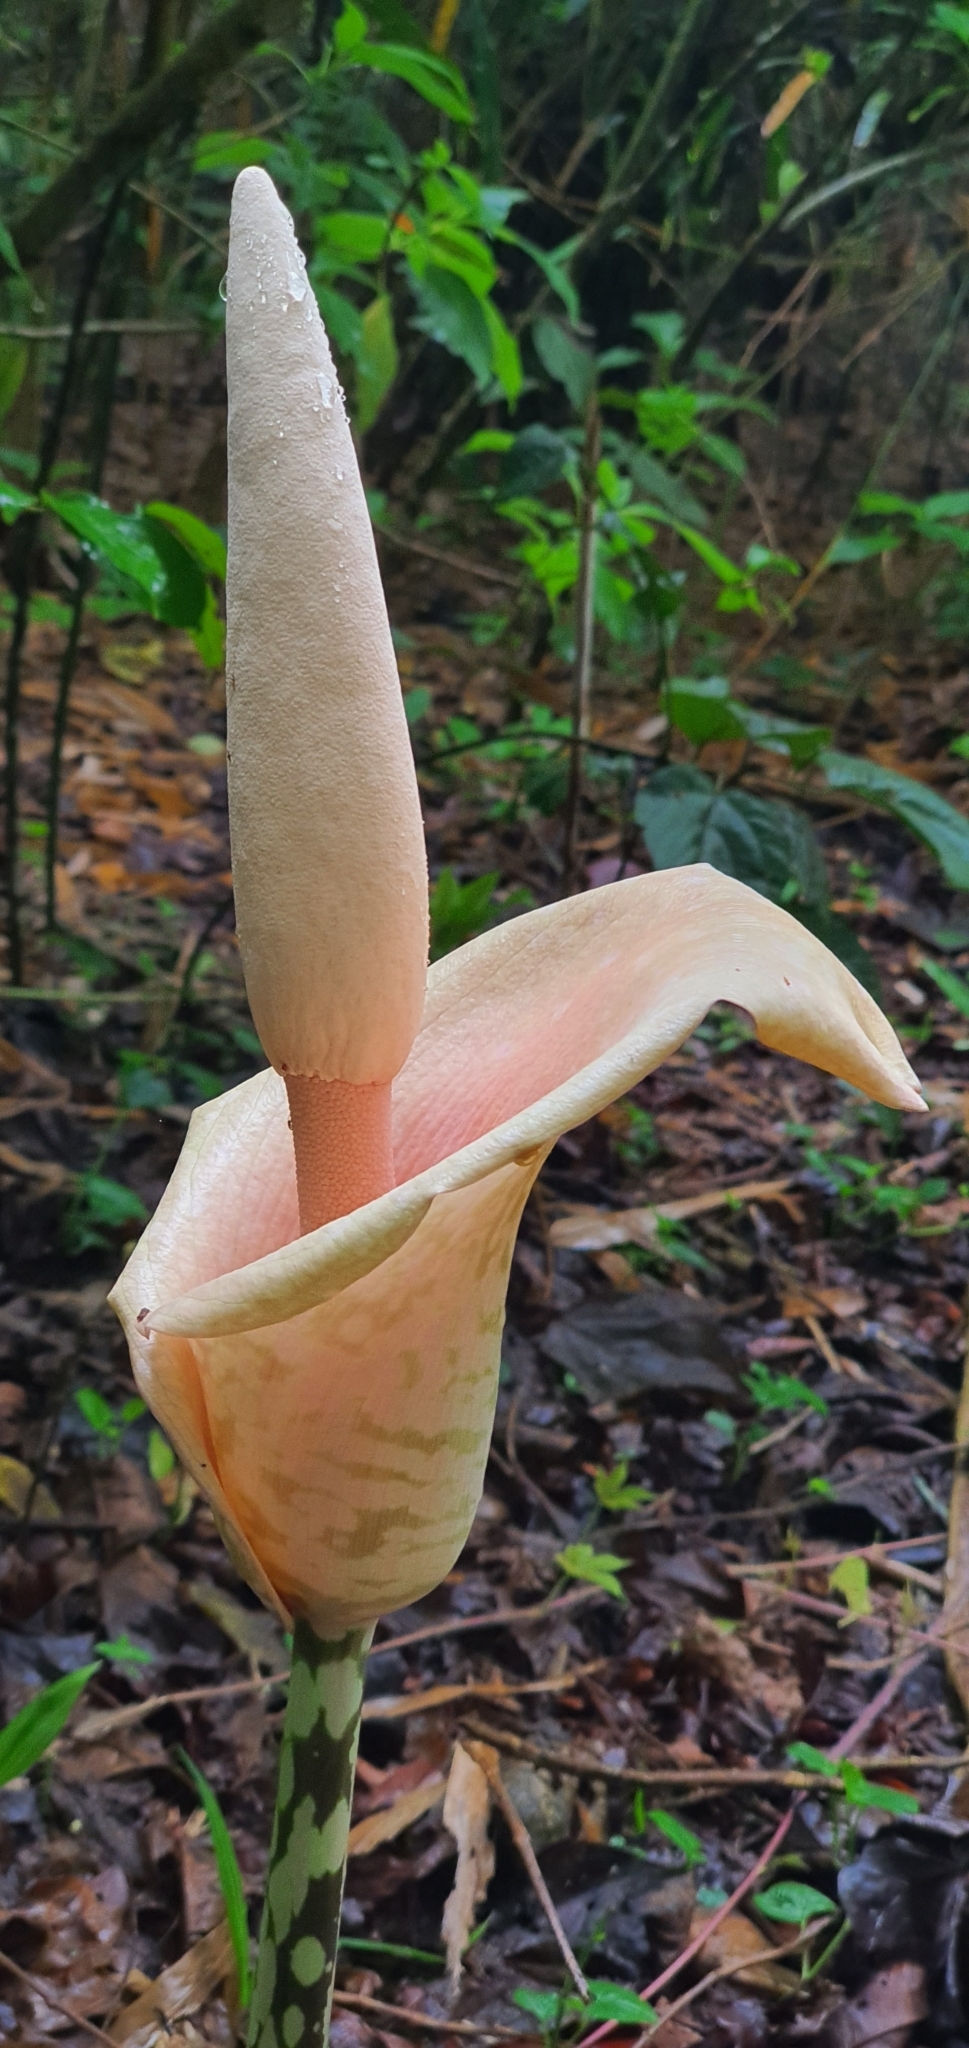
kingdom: Plantae
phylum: Tracheophyta
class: Liliopsida
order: Alismatales
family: Araceae
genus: Amorphophallus
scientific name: Amorphophallus bulbifer
